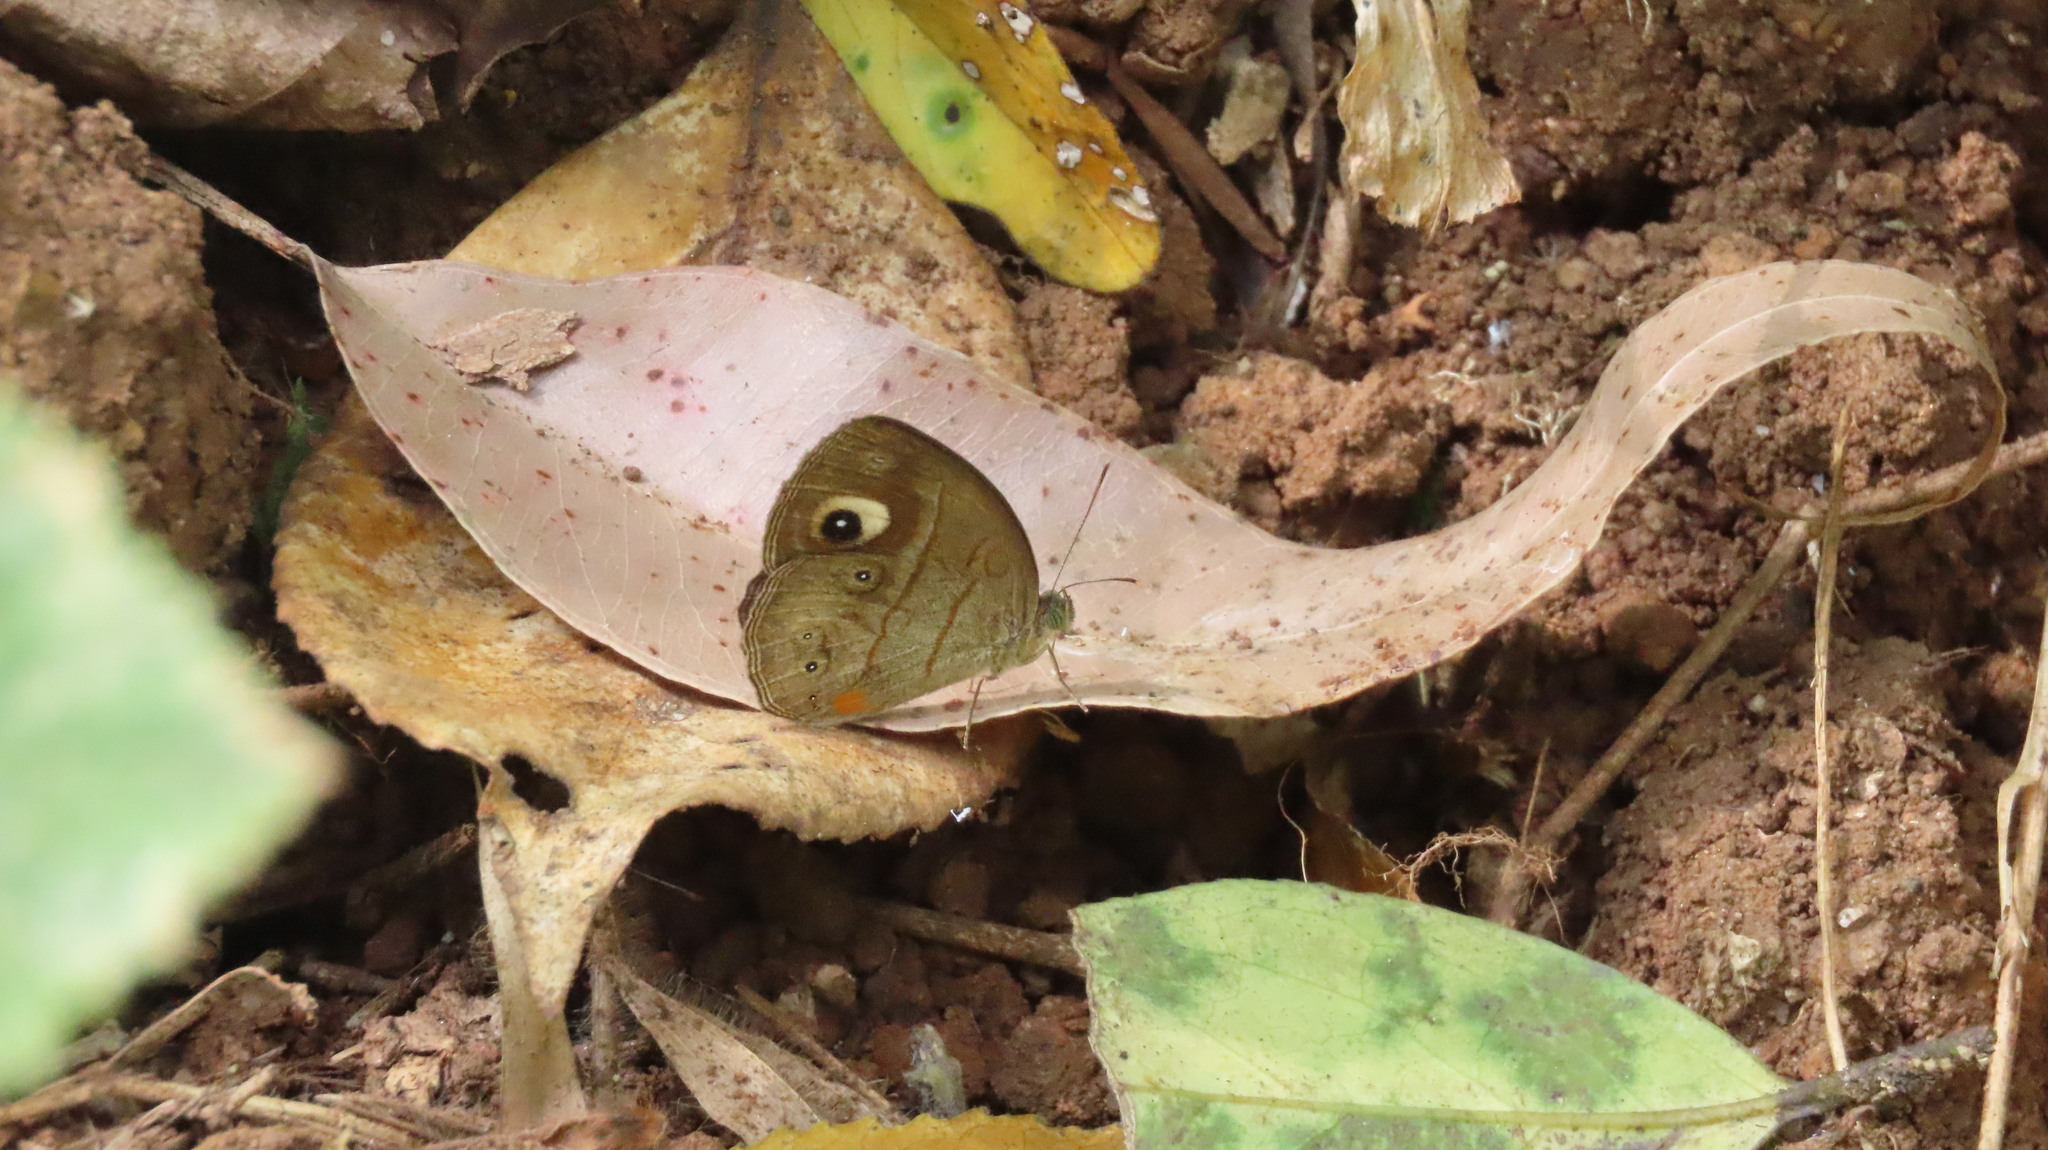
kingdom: Animalia
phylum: Arthropoda
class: Insecta
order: Lepidoptera
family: Nymphalidae
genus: Mycalesis
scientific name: Mycalesis patnia
